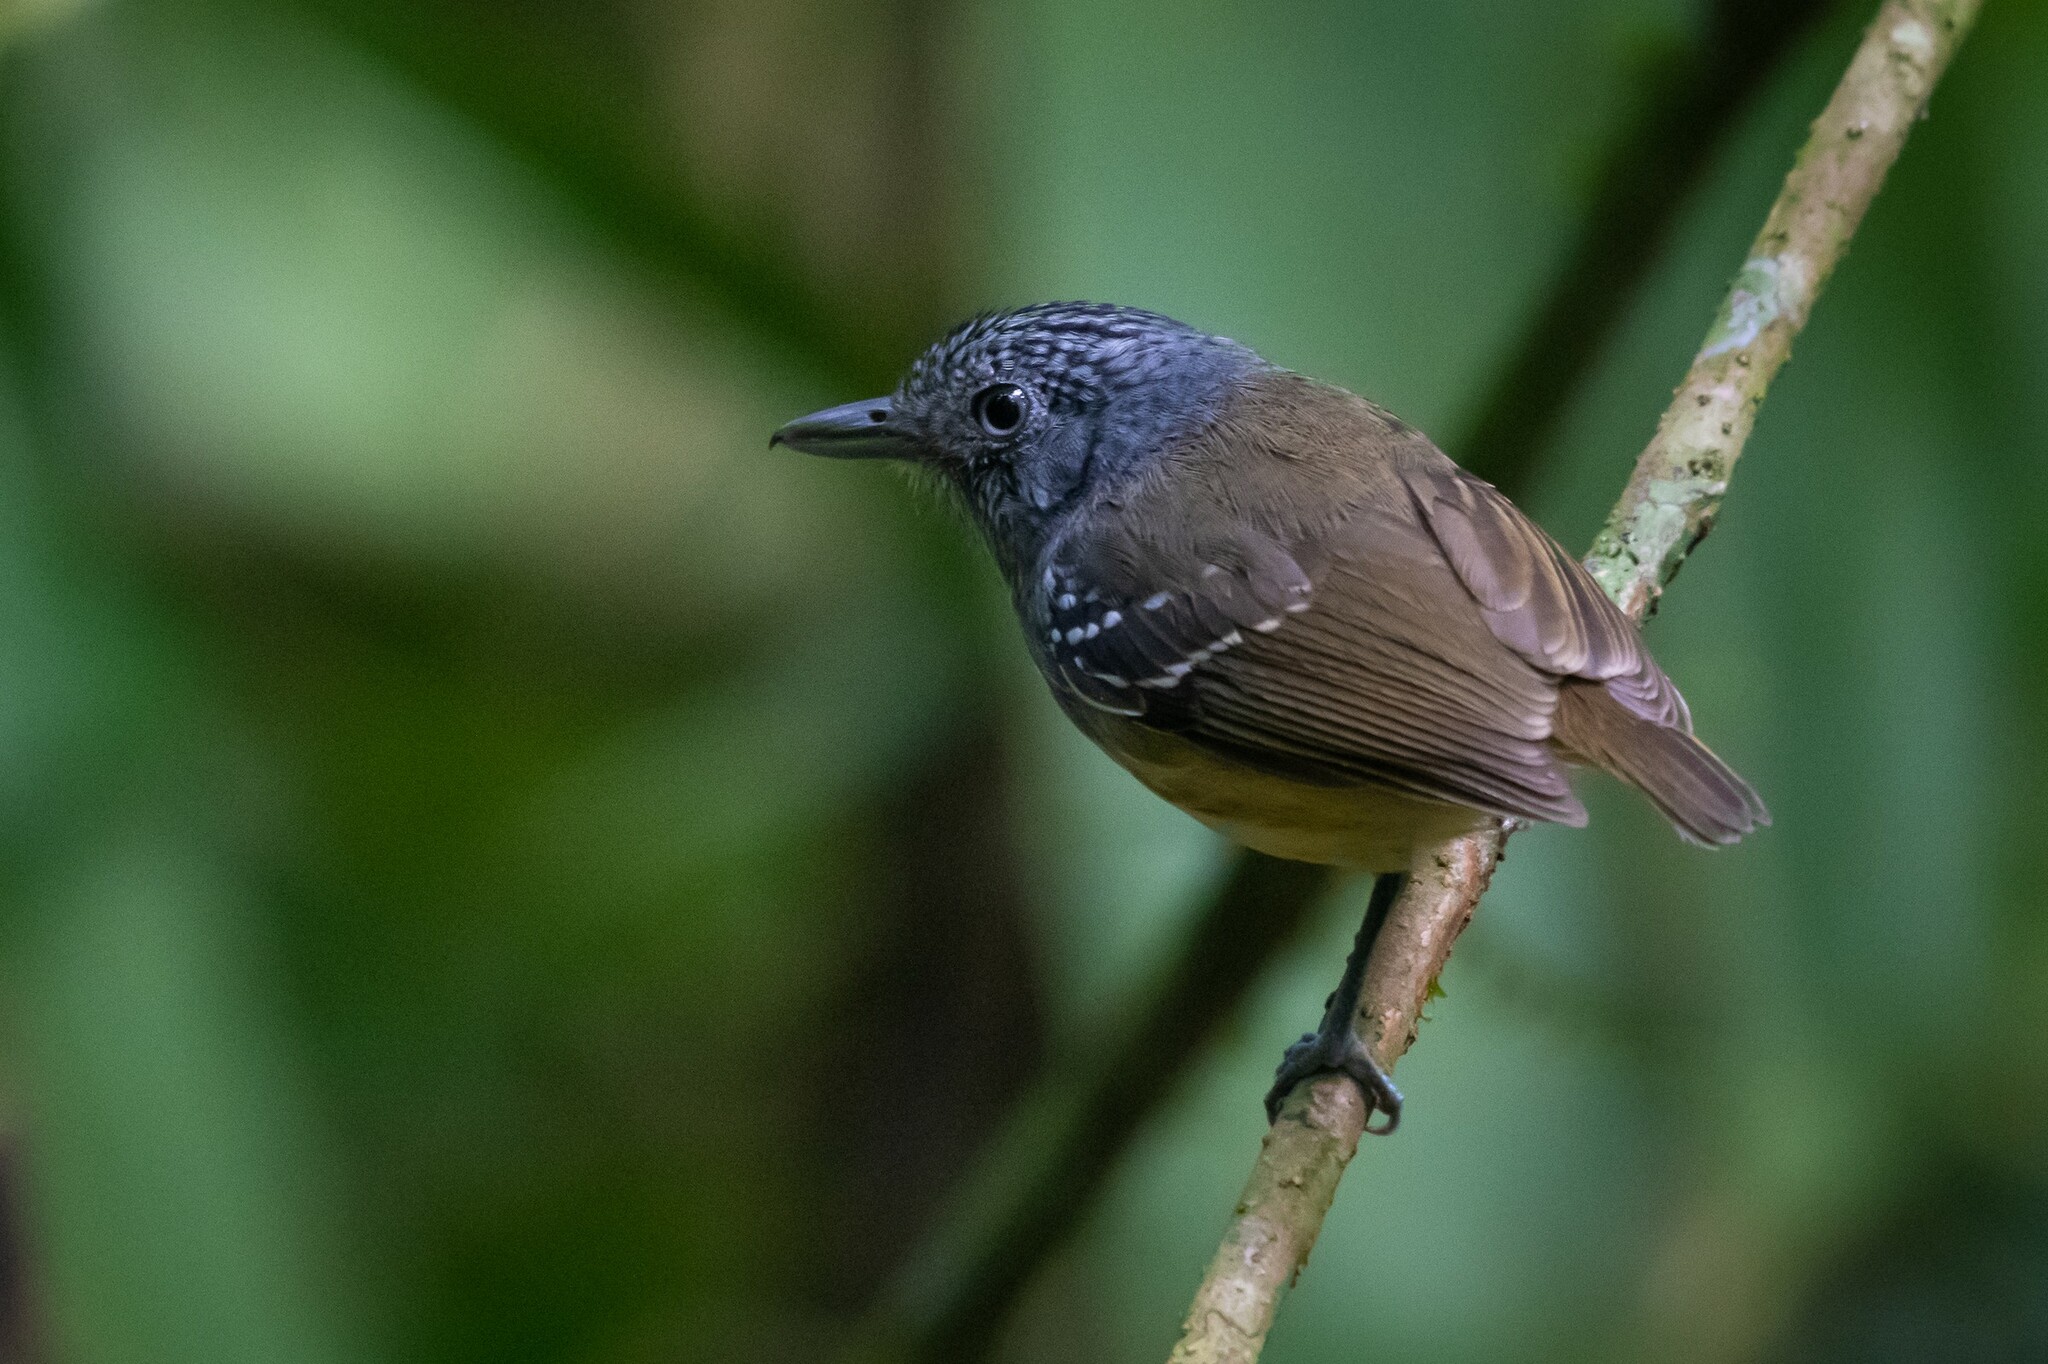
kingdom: Animalia
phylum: Chordata
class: Aves
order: Passeriformes
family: Thamnophilidae
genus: Dysithamnus
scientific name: Dysithamnus striaticeps
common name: Streak-crowned antvireo
